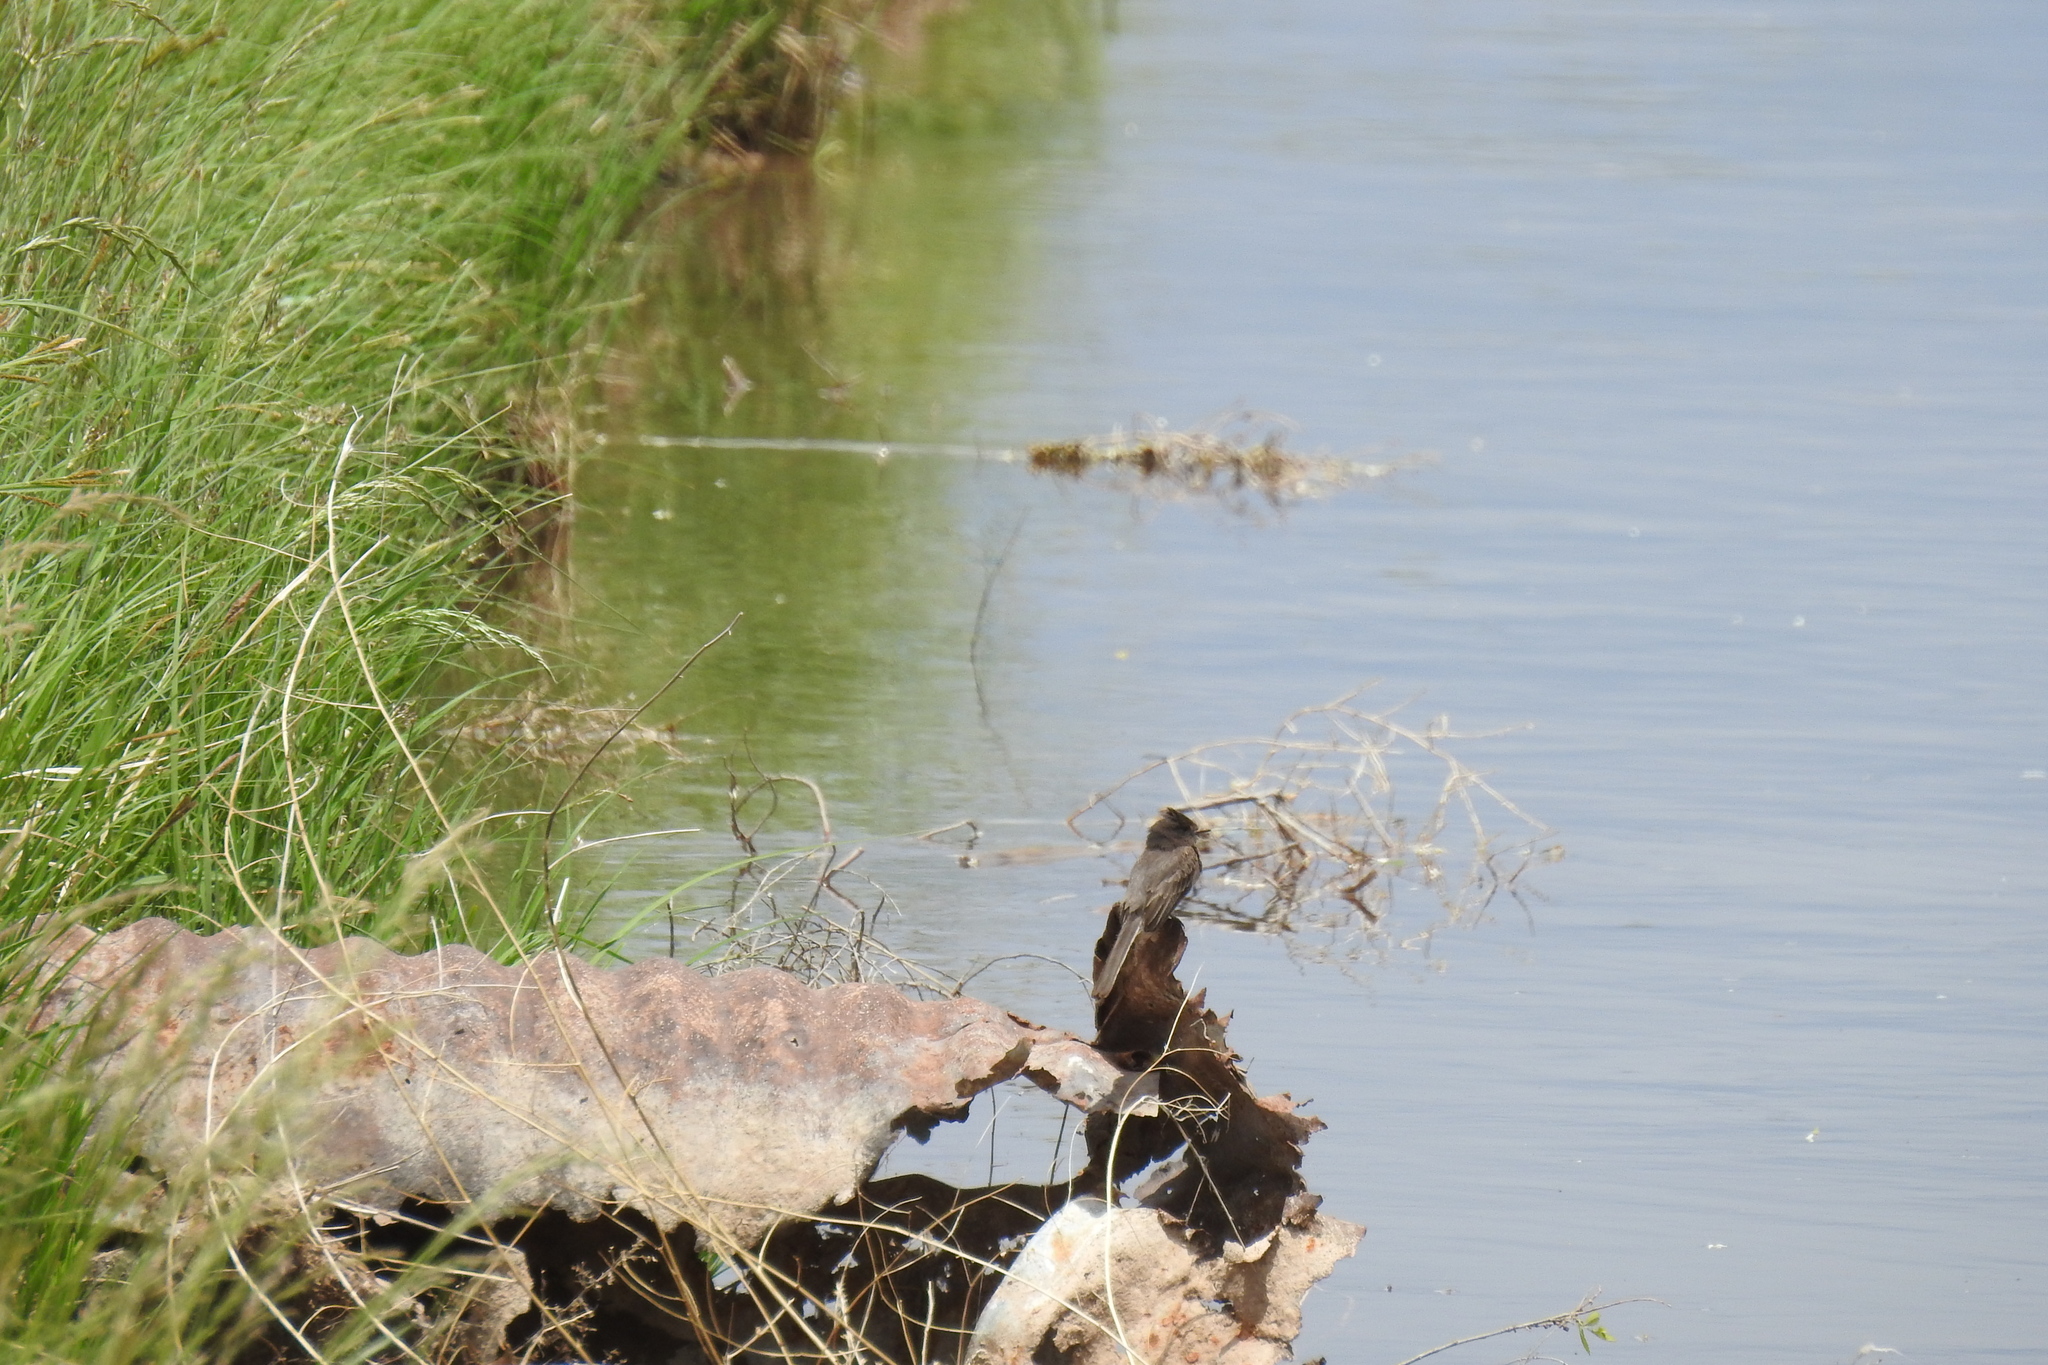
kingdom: Animalia
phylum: Chordata
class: Aves
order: Passeriformes
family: Tyrannidae
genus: Sayornis
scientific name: Sayornis nigricans
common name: Black phoebe
